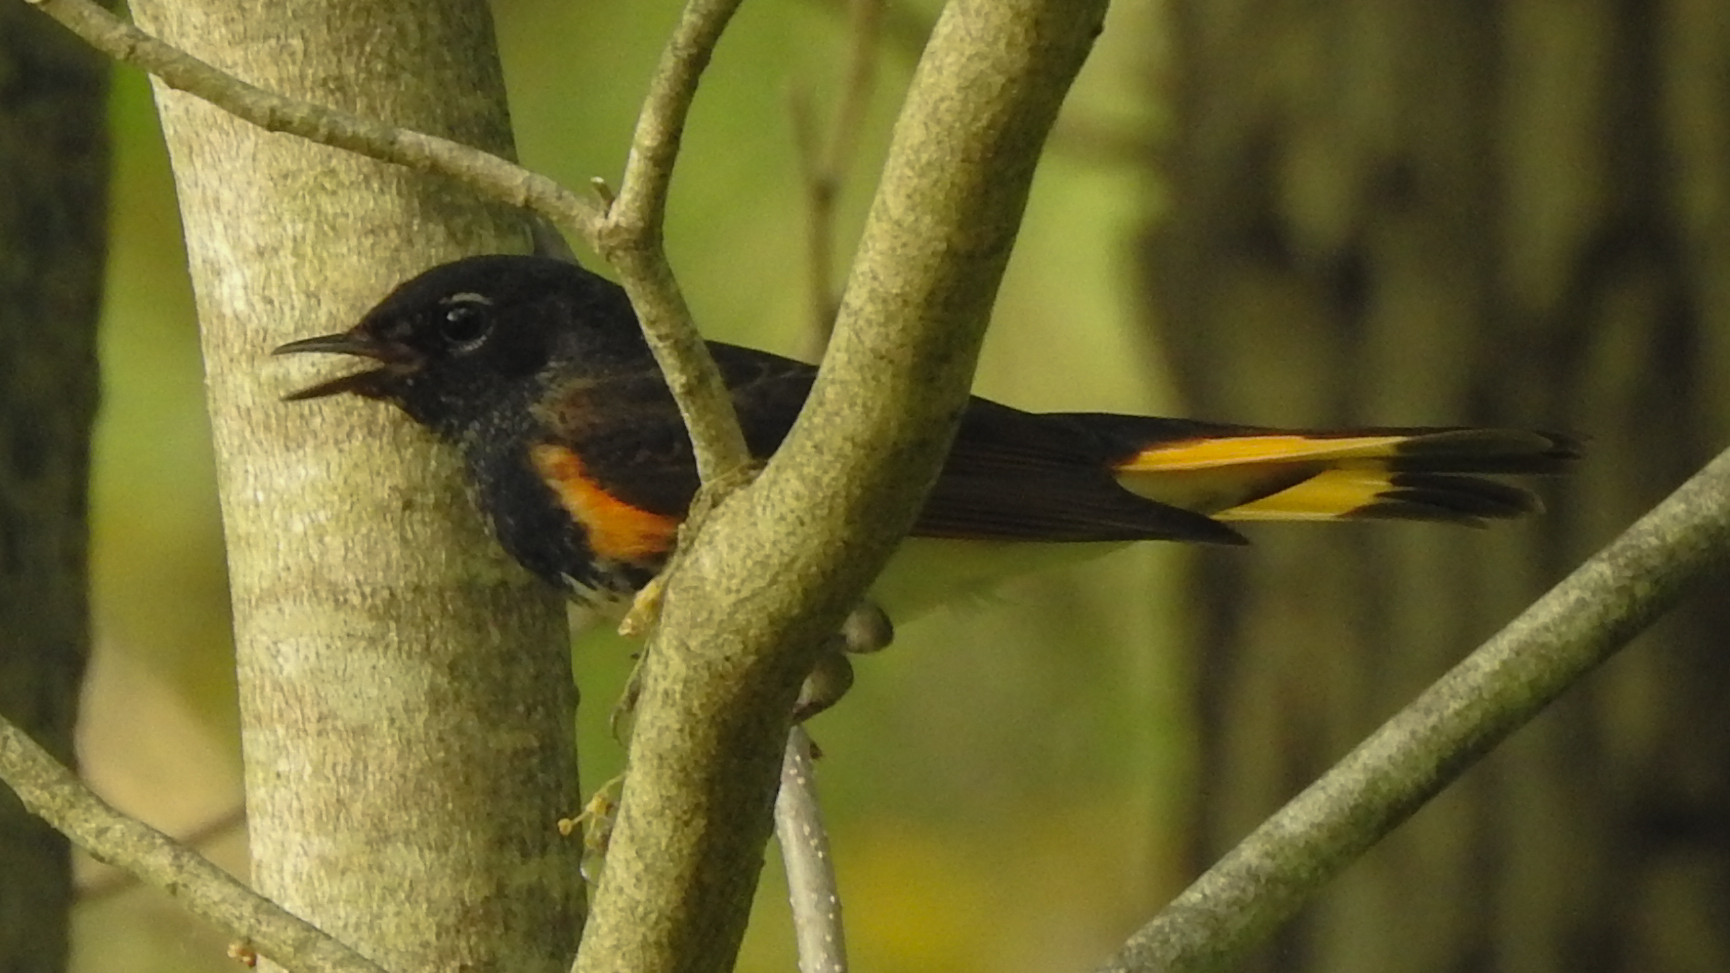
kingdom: Animalia
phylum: Chordata
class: Aves
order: Passeriformes
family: Parulidae
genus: Setophaga
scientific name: Setophaga ruticilla
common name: American redstart
